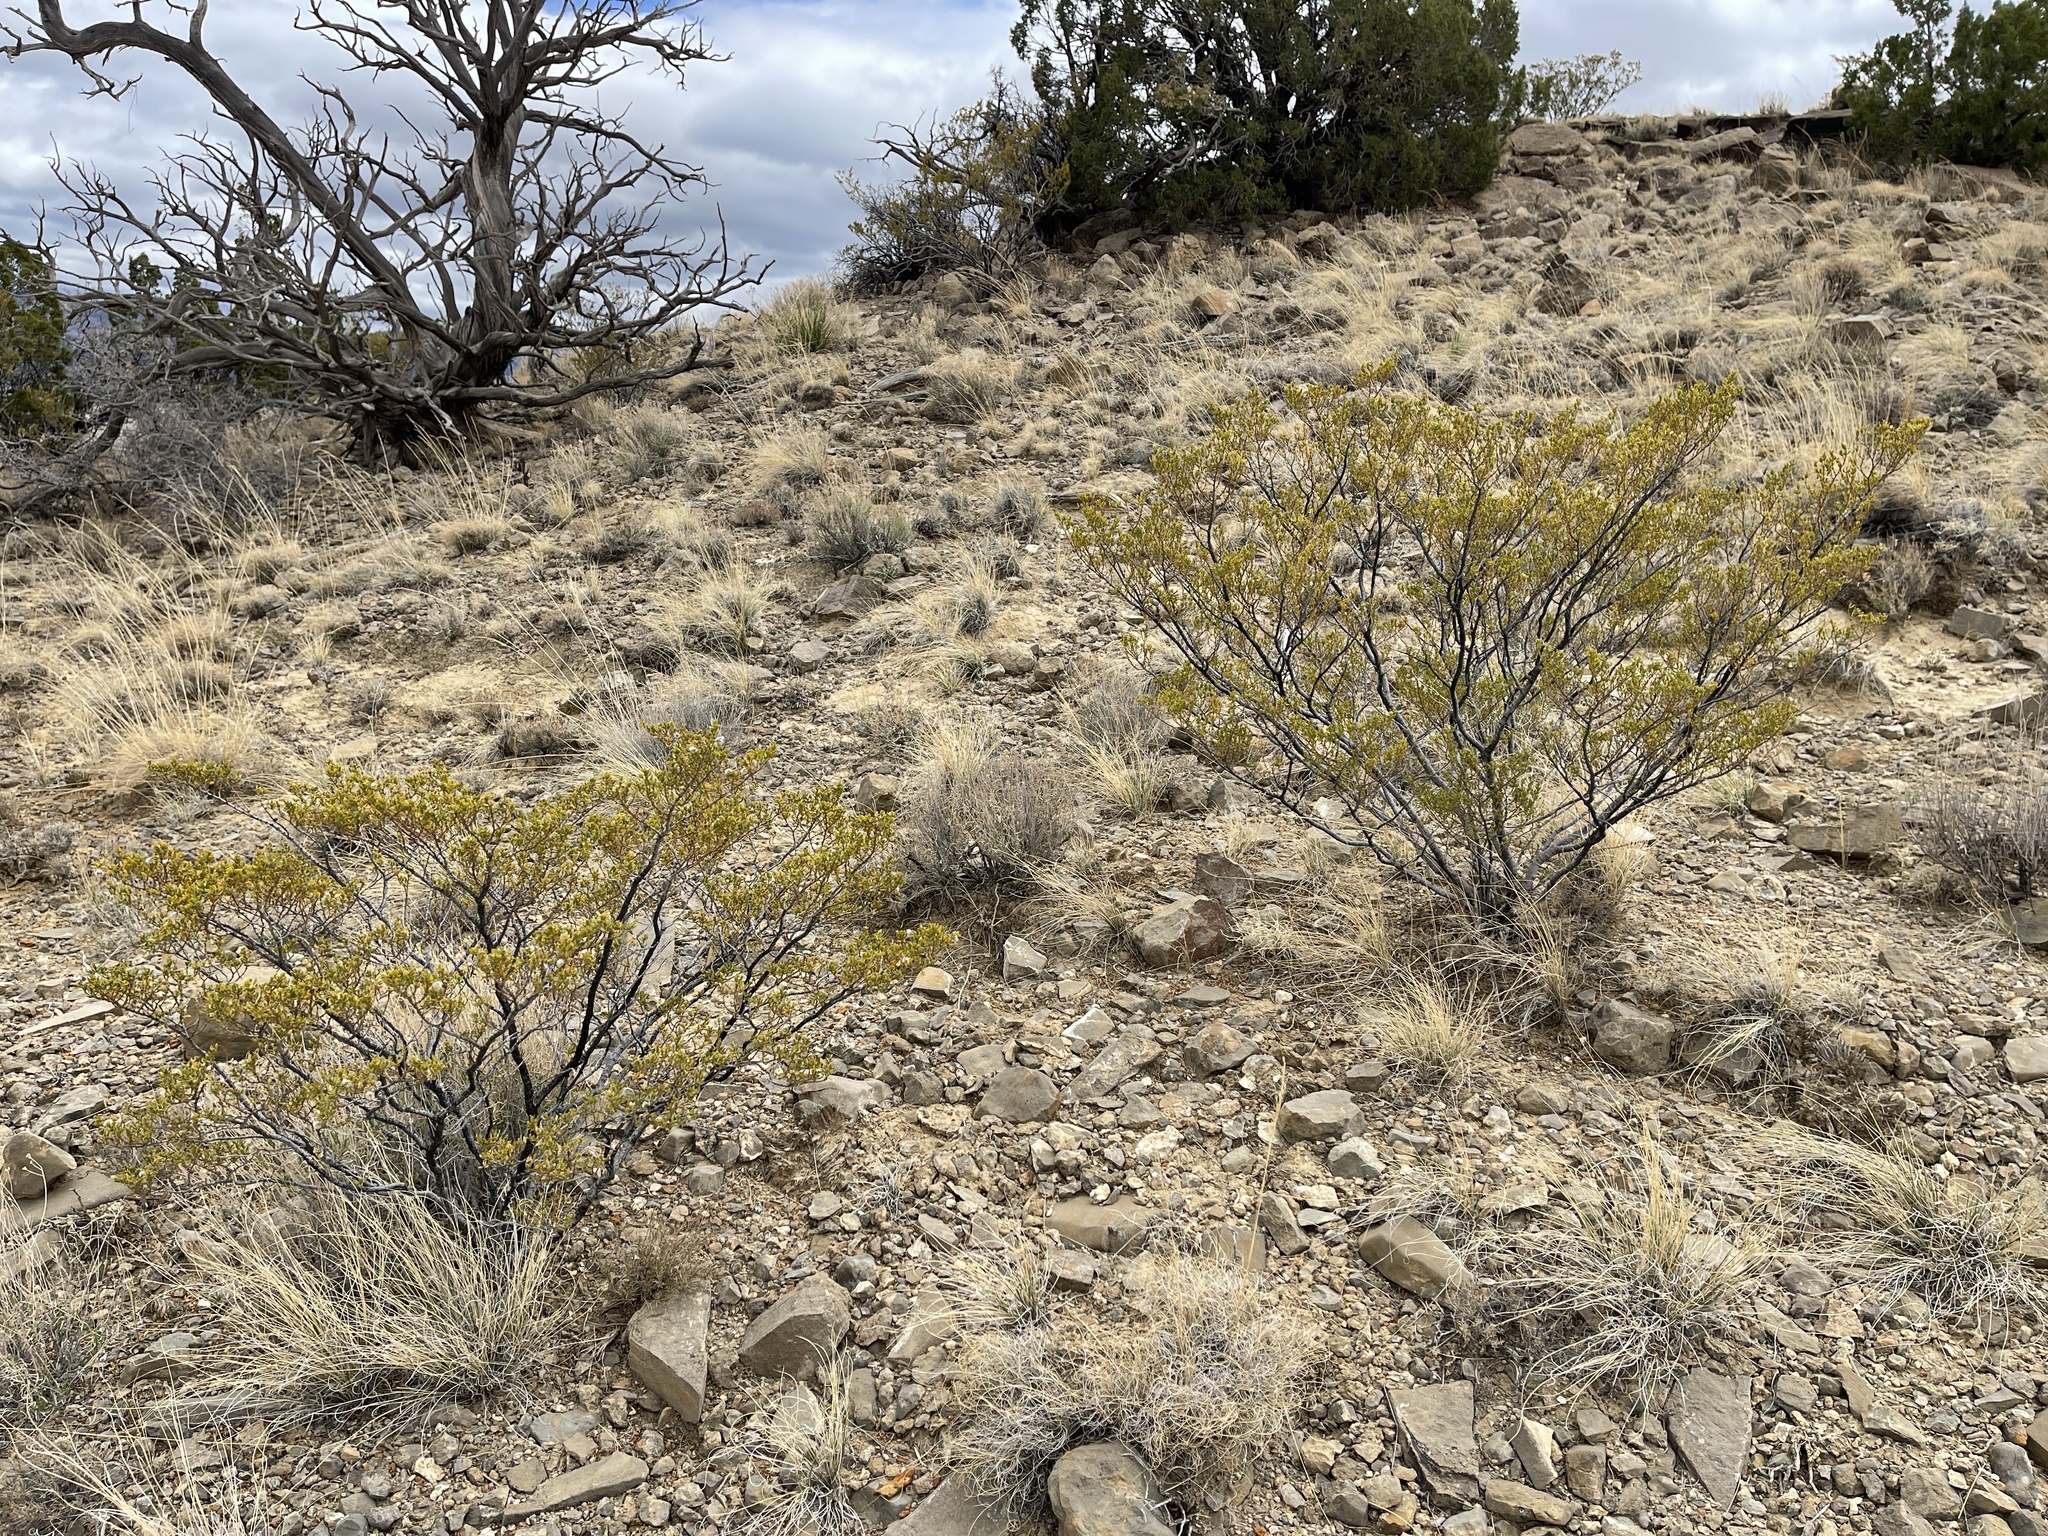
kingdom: Plantae
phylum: Tracheophyta
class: Magnoliopsida
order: Zygophyllales
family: Zygophyllaceae
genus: Larrea
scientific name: Larrea tridentata
